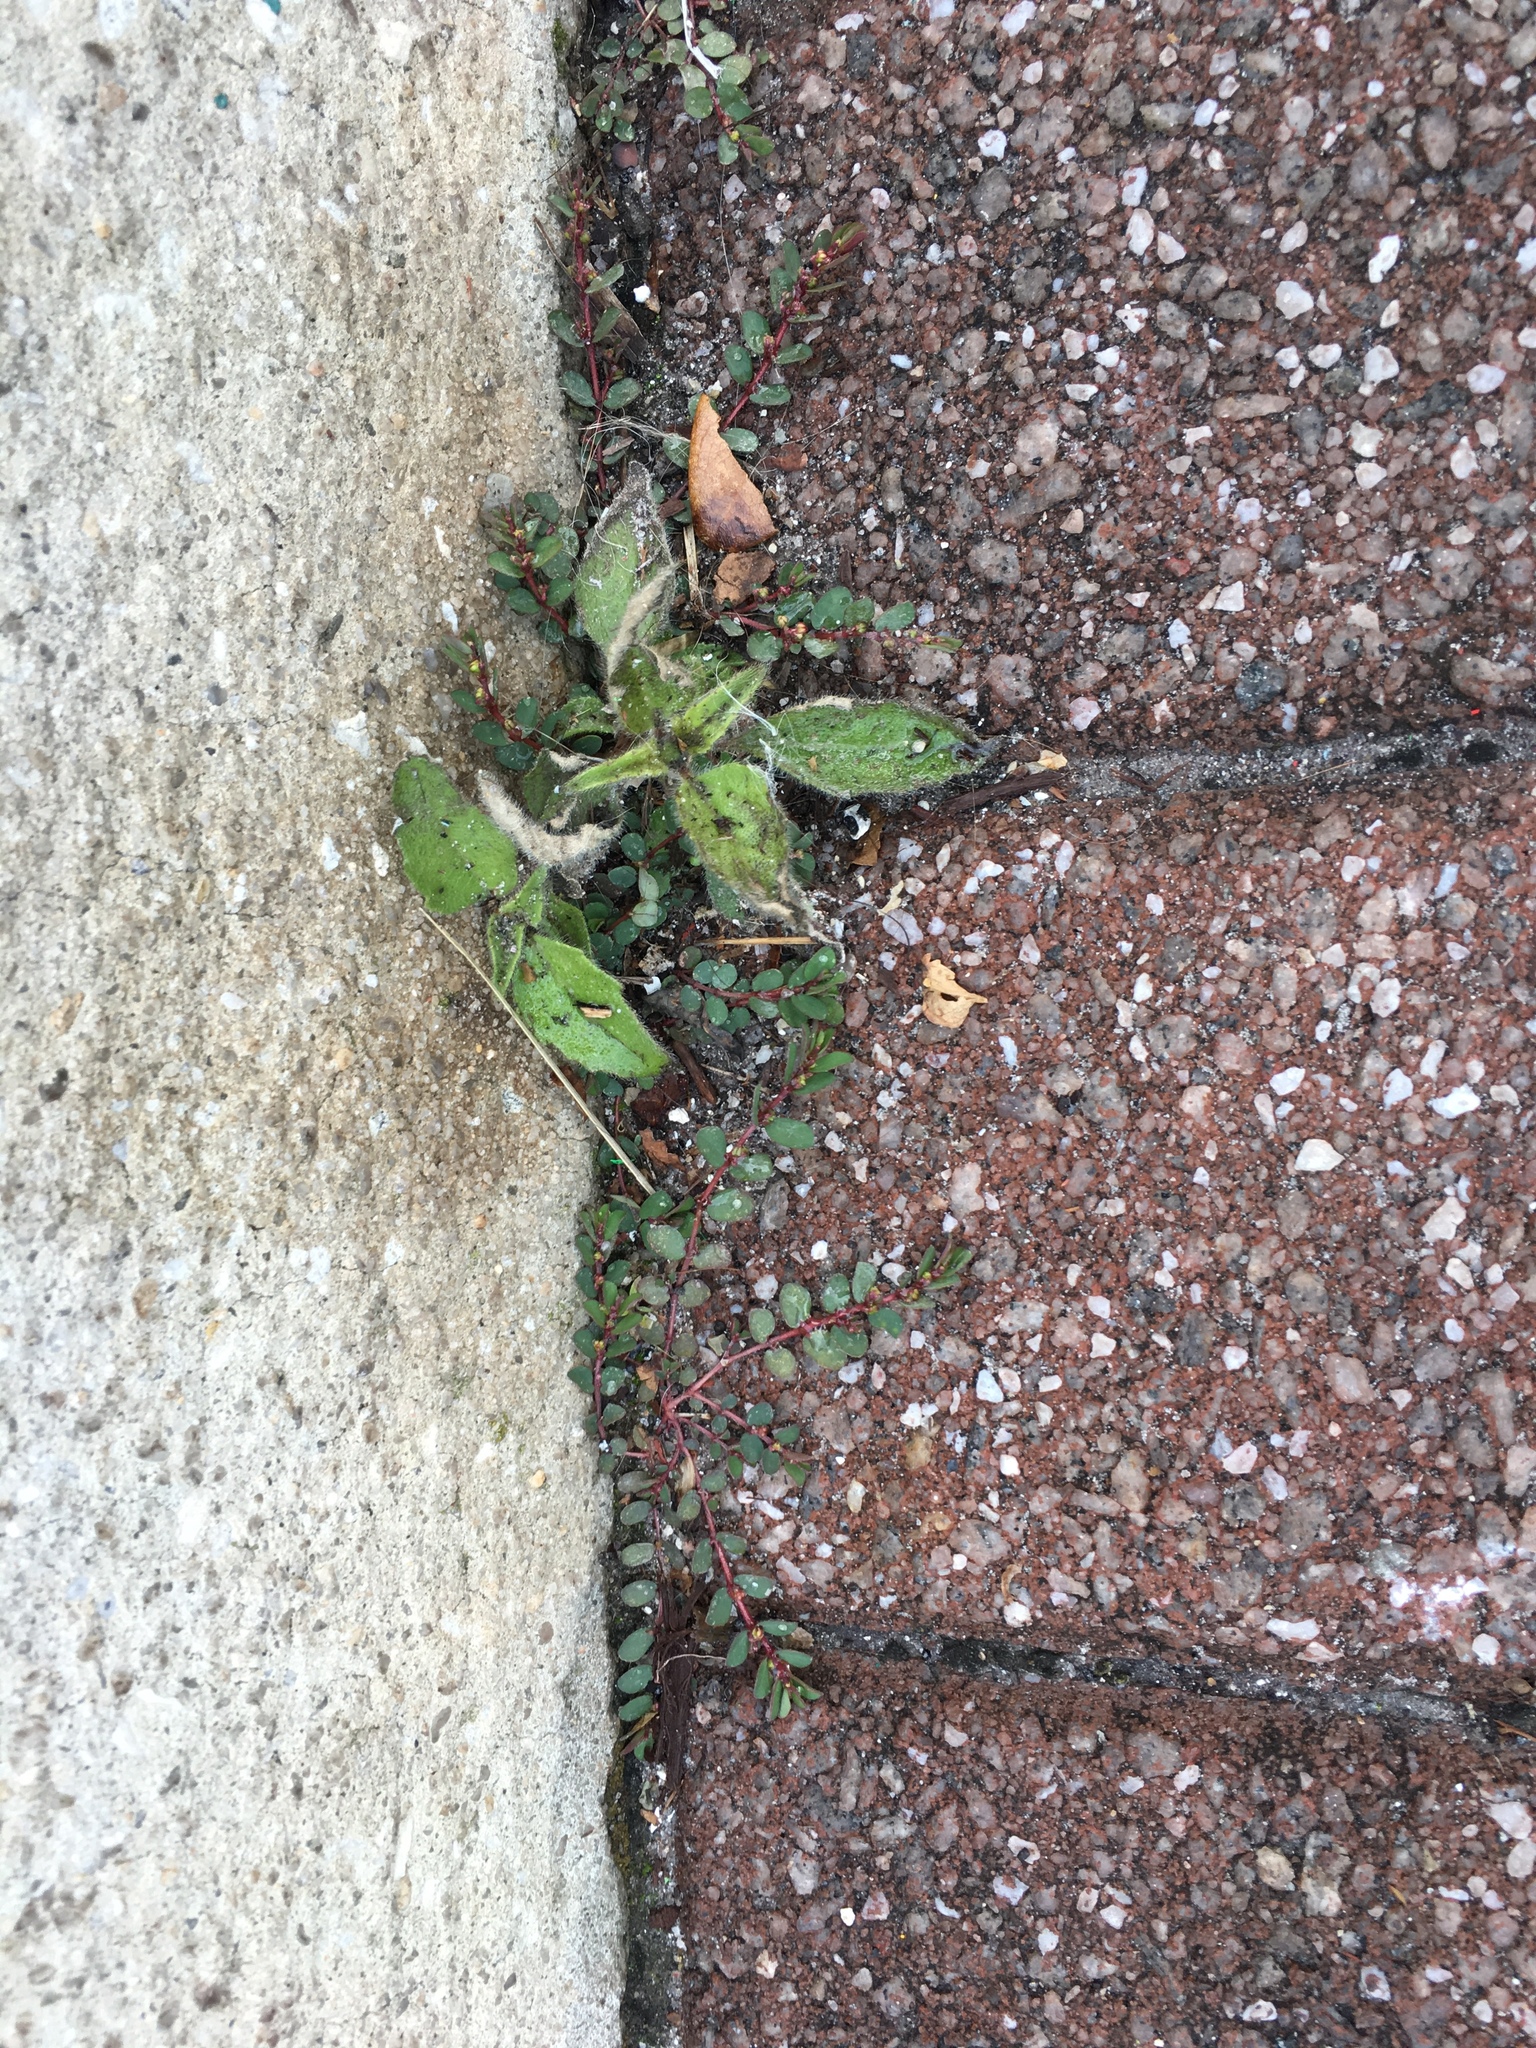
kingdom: Plantae
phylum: Tracheophyta
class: Magnoliopsida
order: Malpighiales
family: Euphorbiaceae
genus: Euphorbia
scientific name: Euphorbia prostrata
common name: Prostrate sandmat
